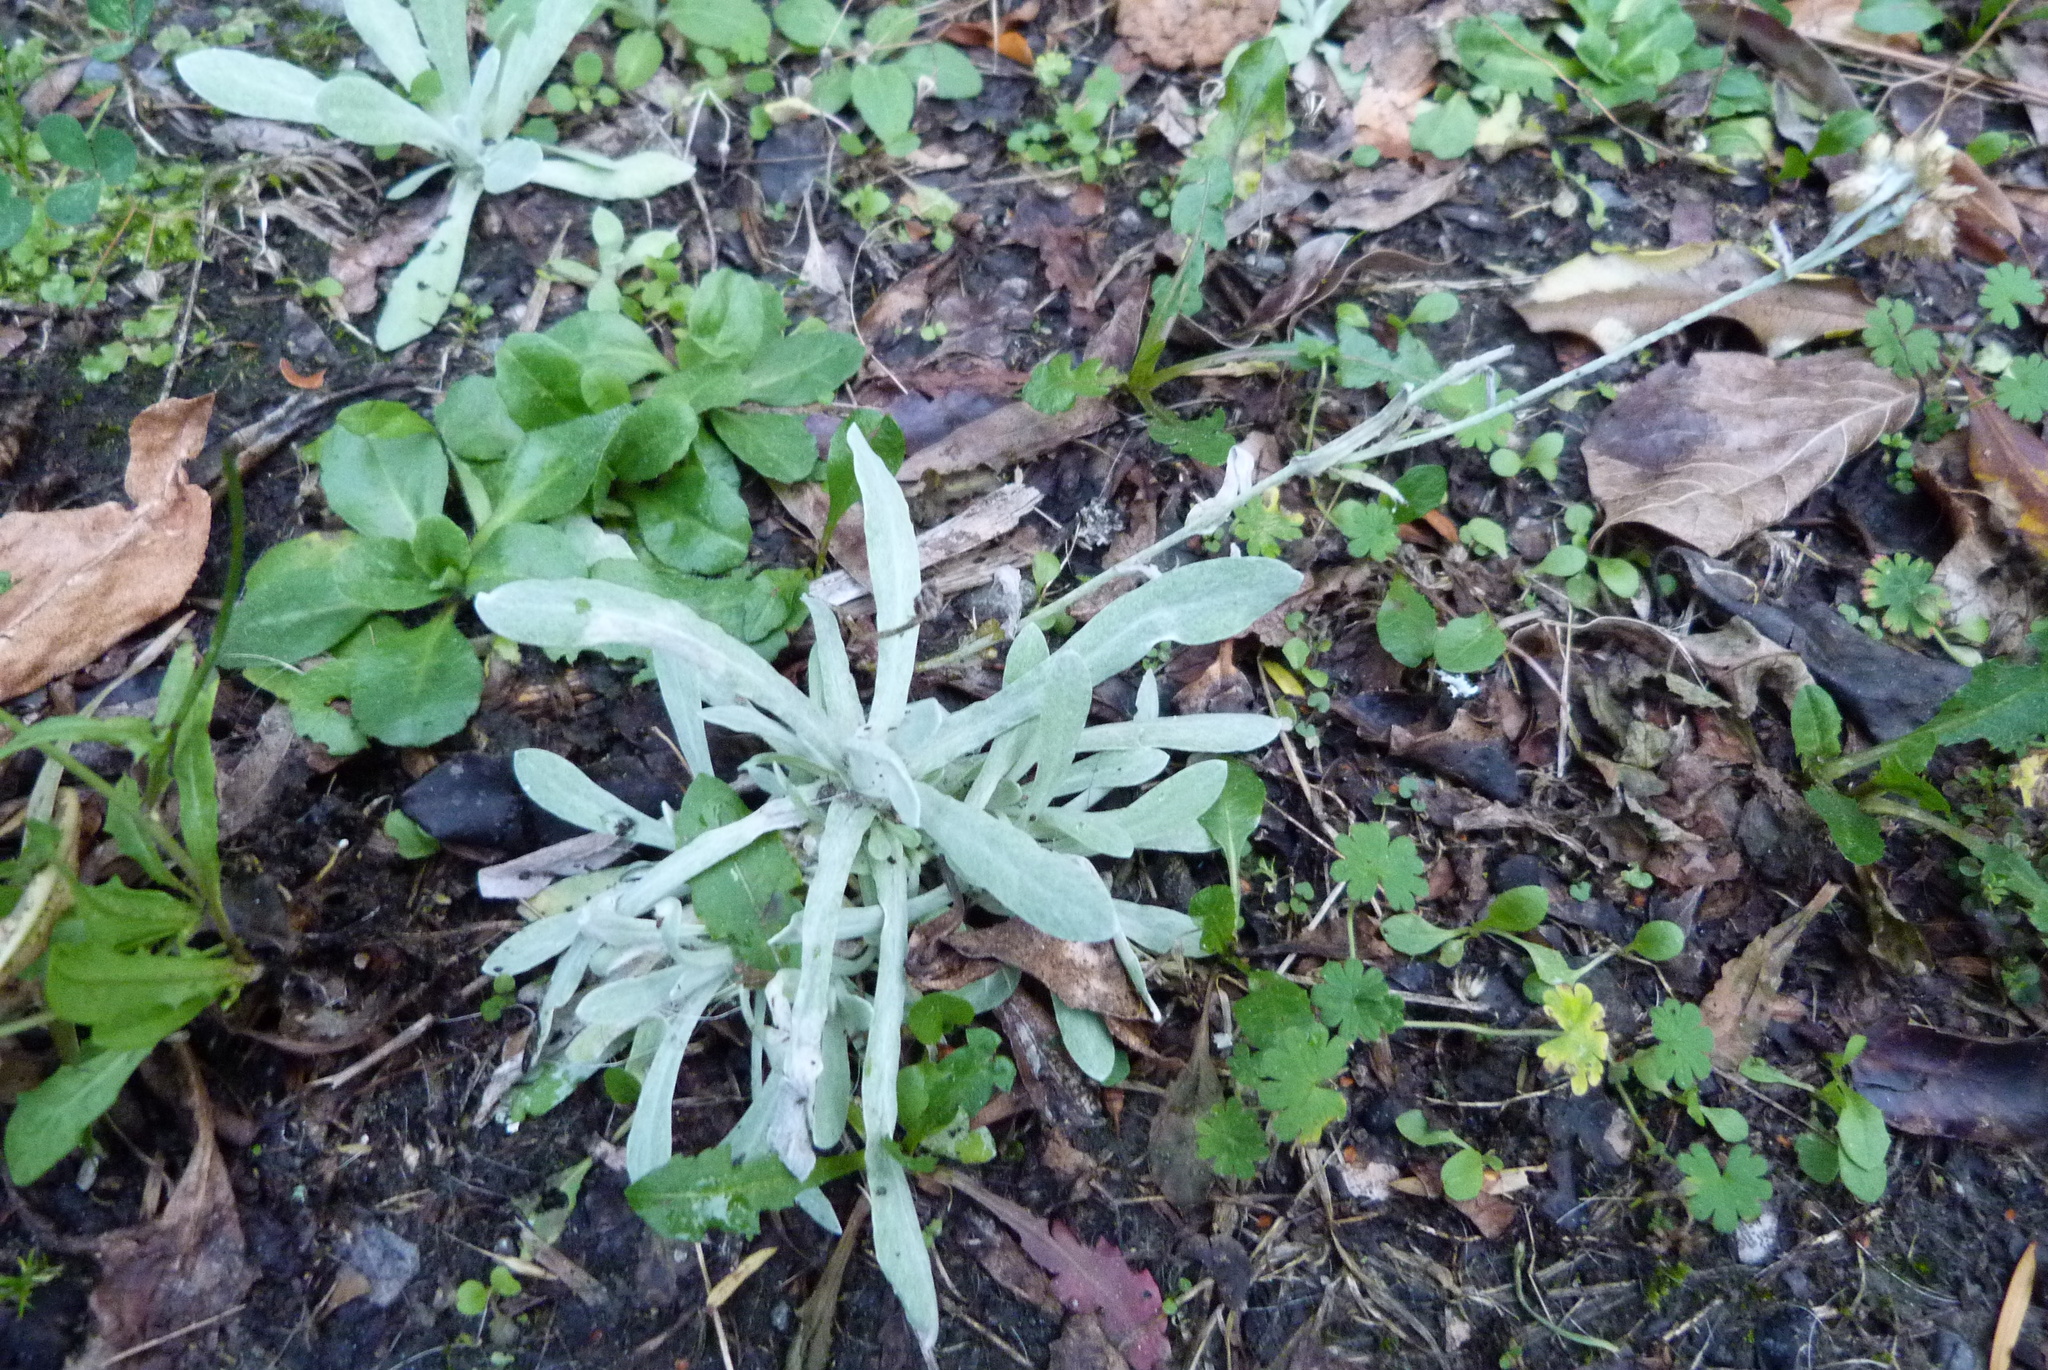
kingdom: Plantae
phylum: Tracheophyta
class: Magnoliopsida
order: Asterales
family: Asteraceae
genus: Helichrysum
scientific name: Helichrysum luteoalbum
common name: Daisy
